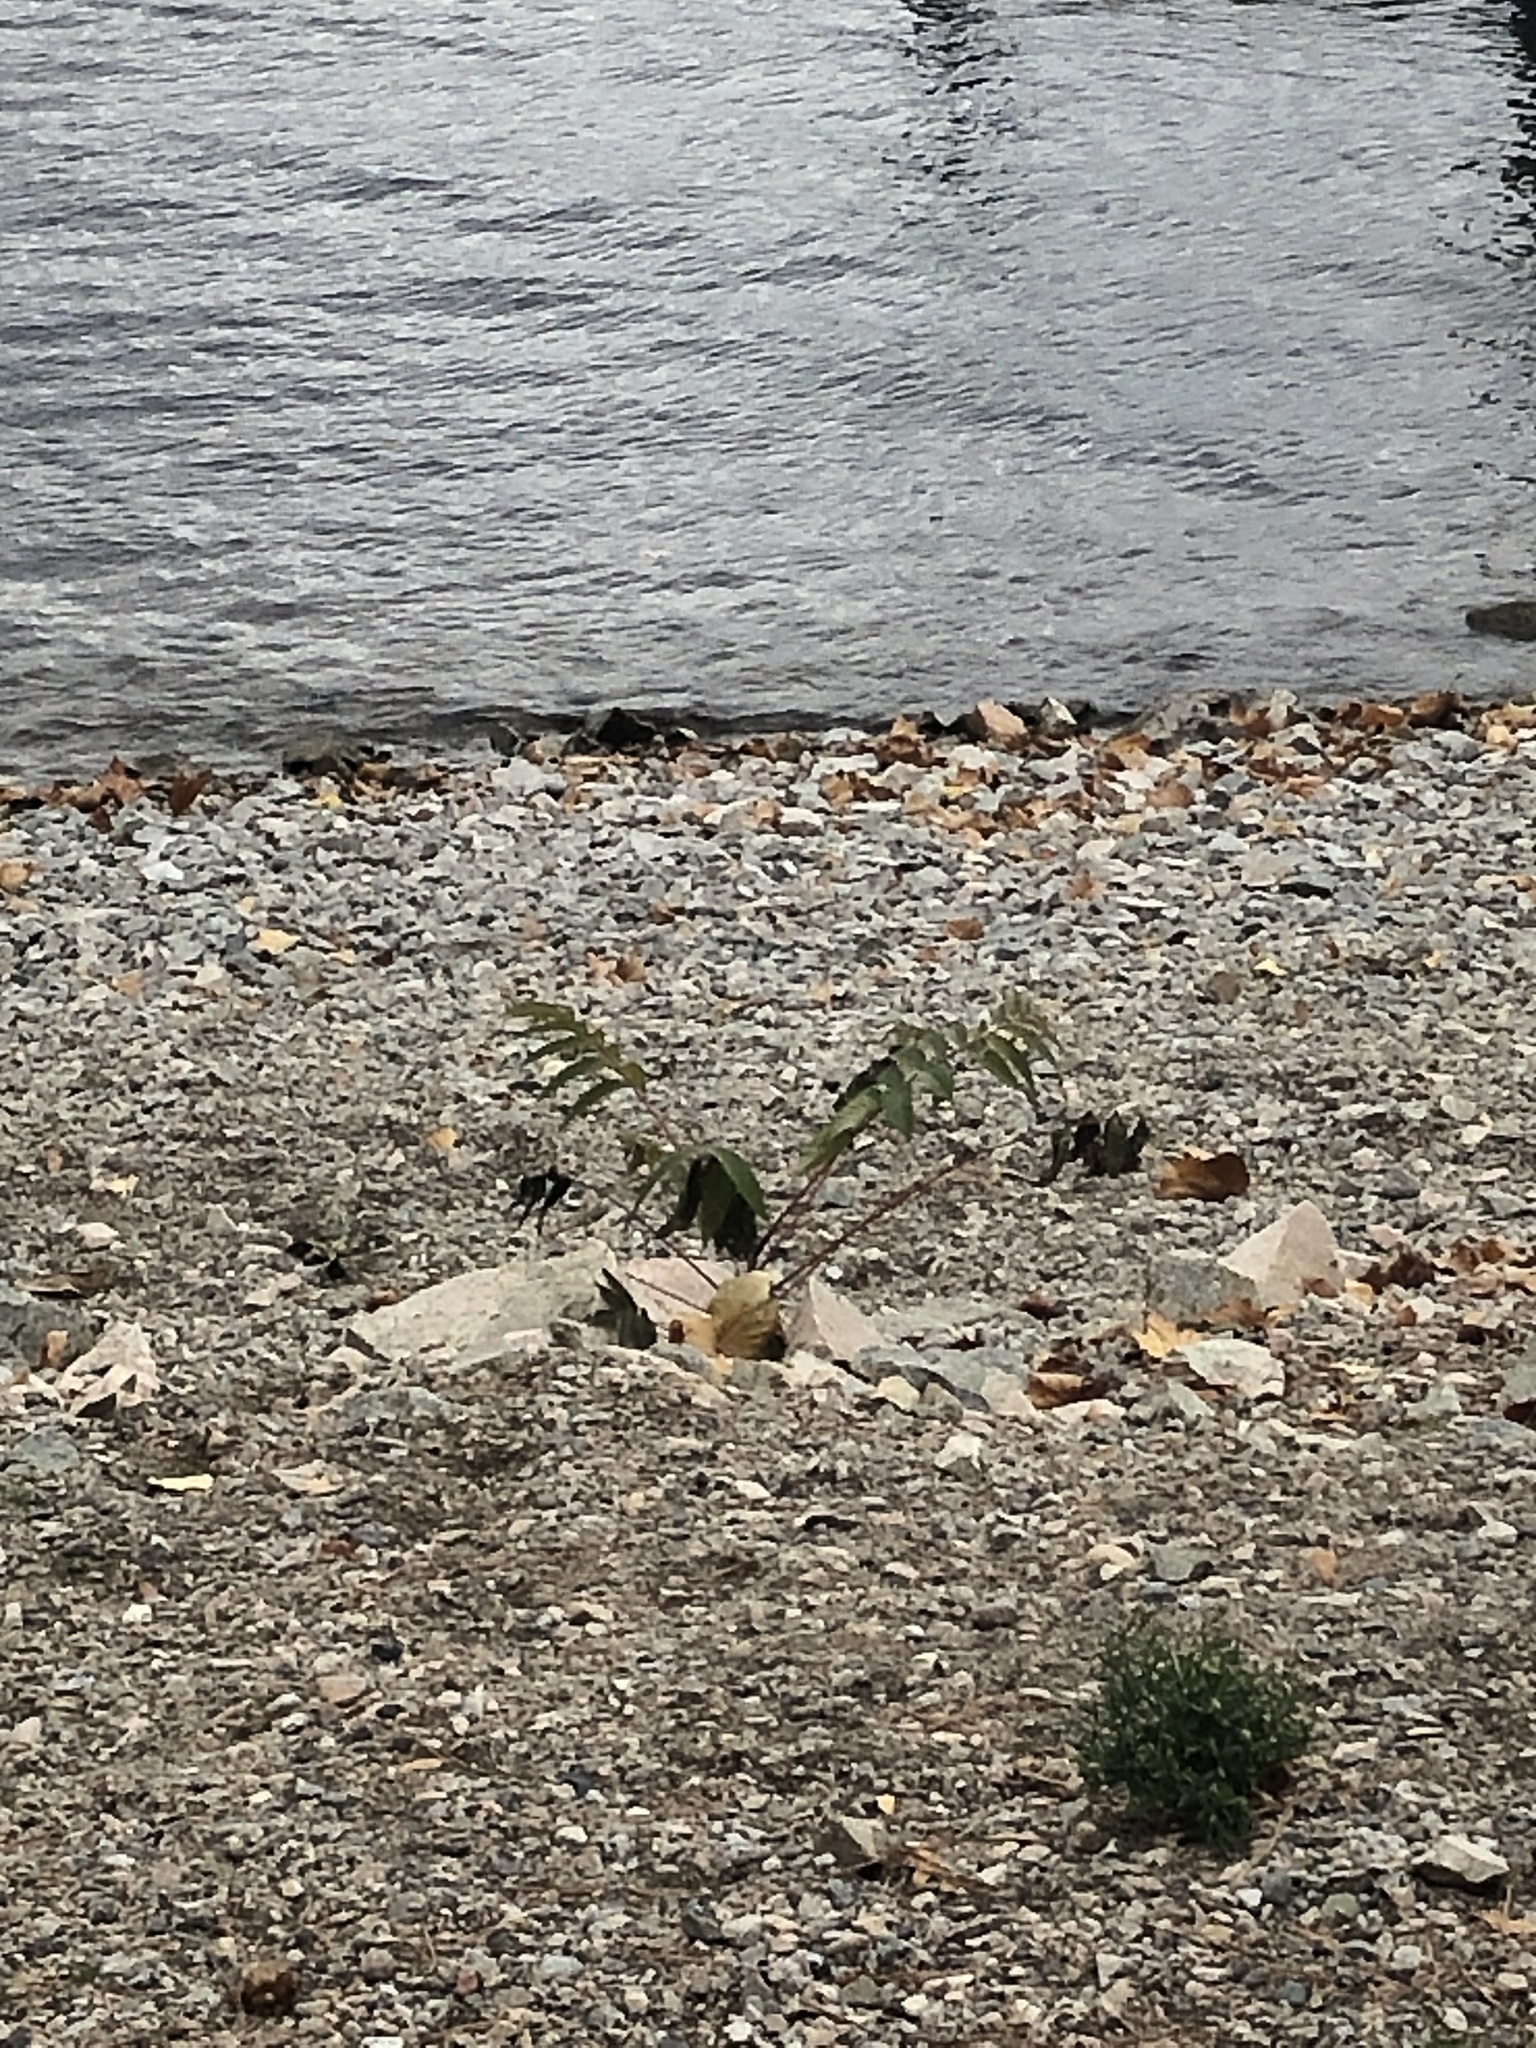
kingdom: Plantae
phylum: Tracheophyta
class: Magnoliopsida
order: Sapindales
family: Simaroubaceae
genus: Ailanthus
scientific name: Ailanthus altissima
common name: Tree-of-heaven
